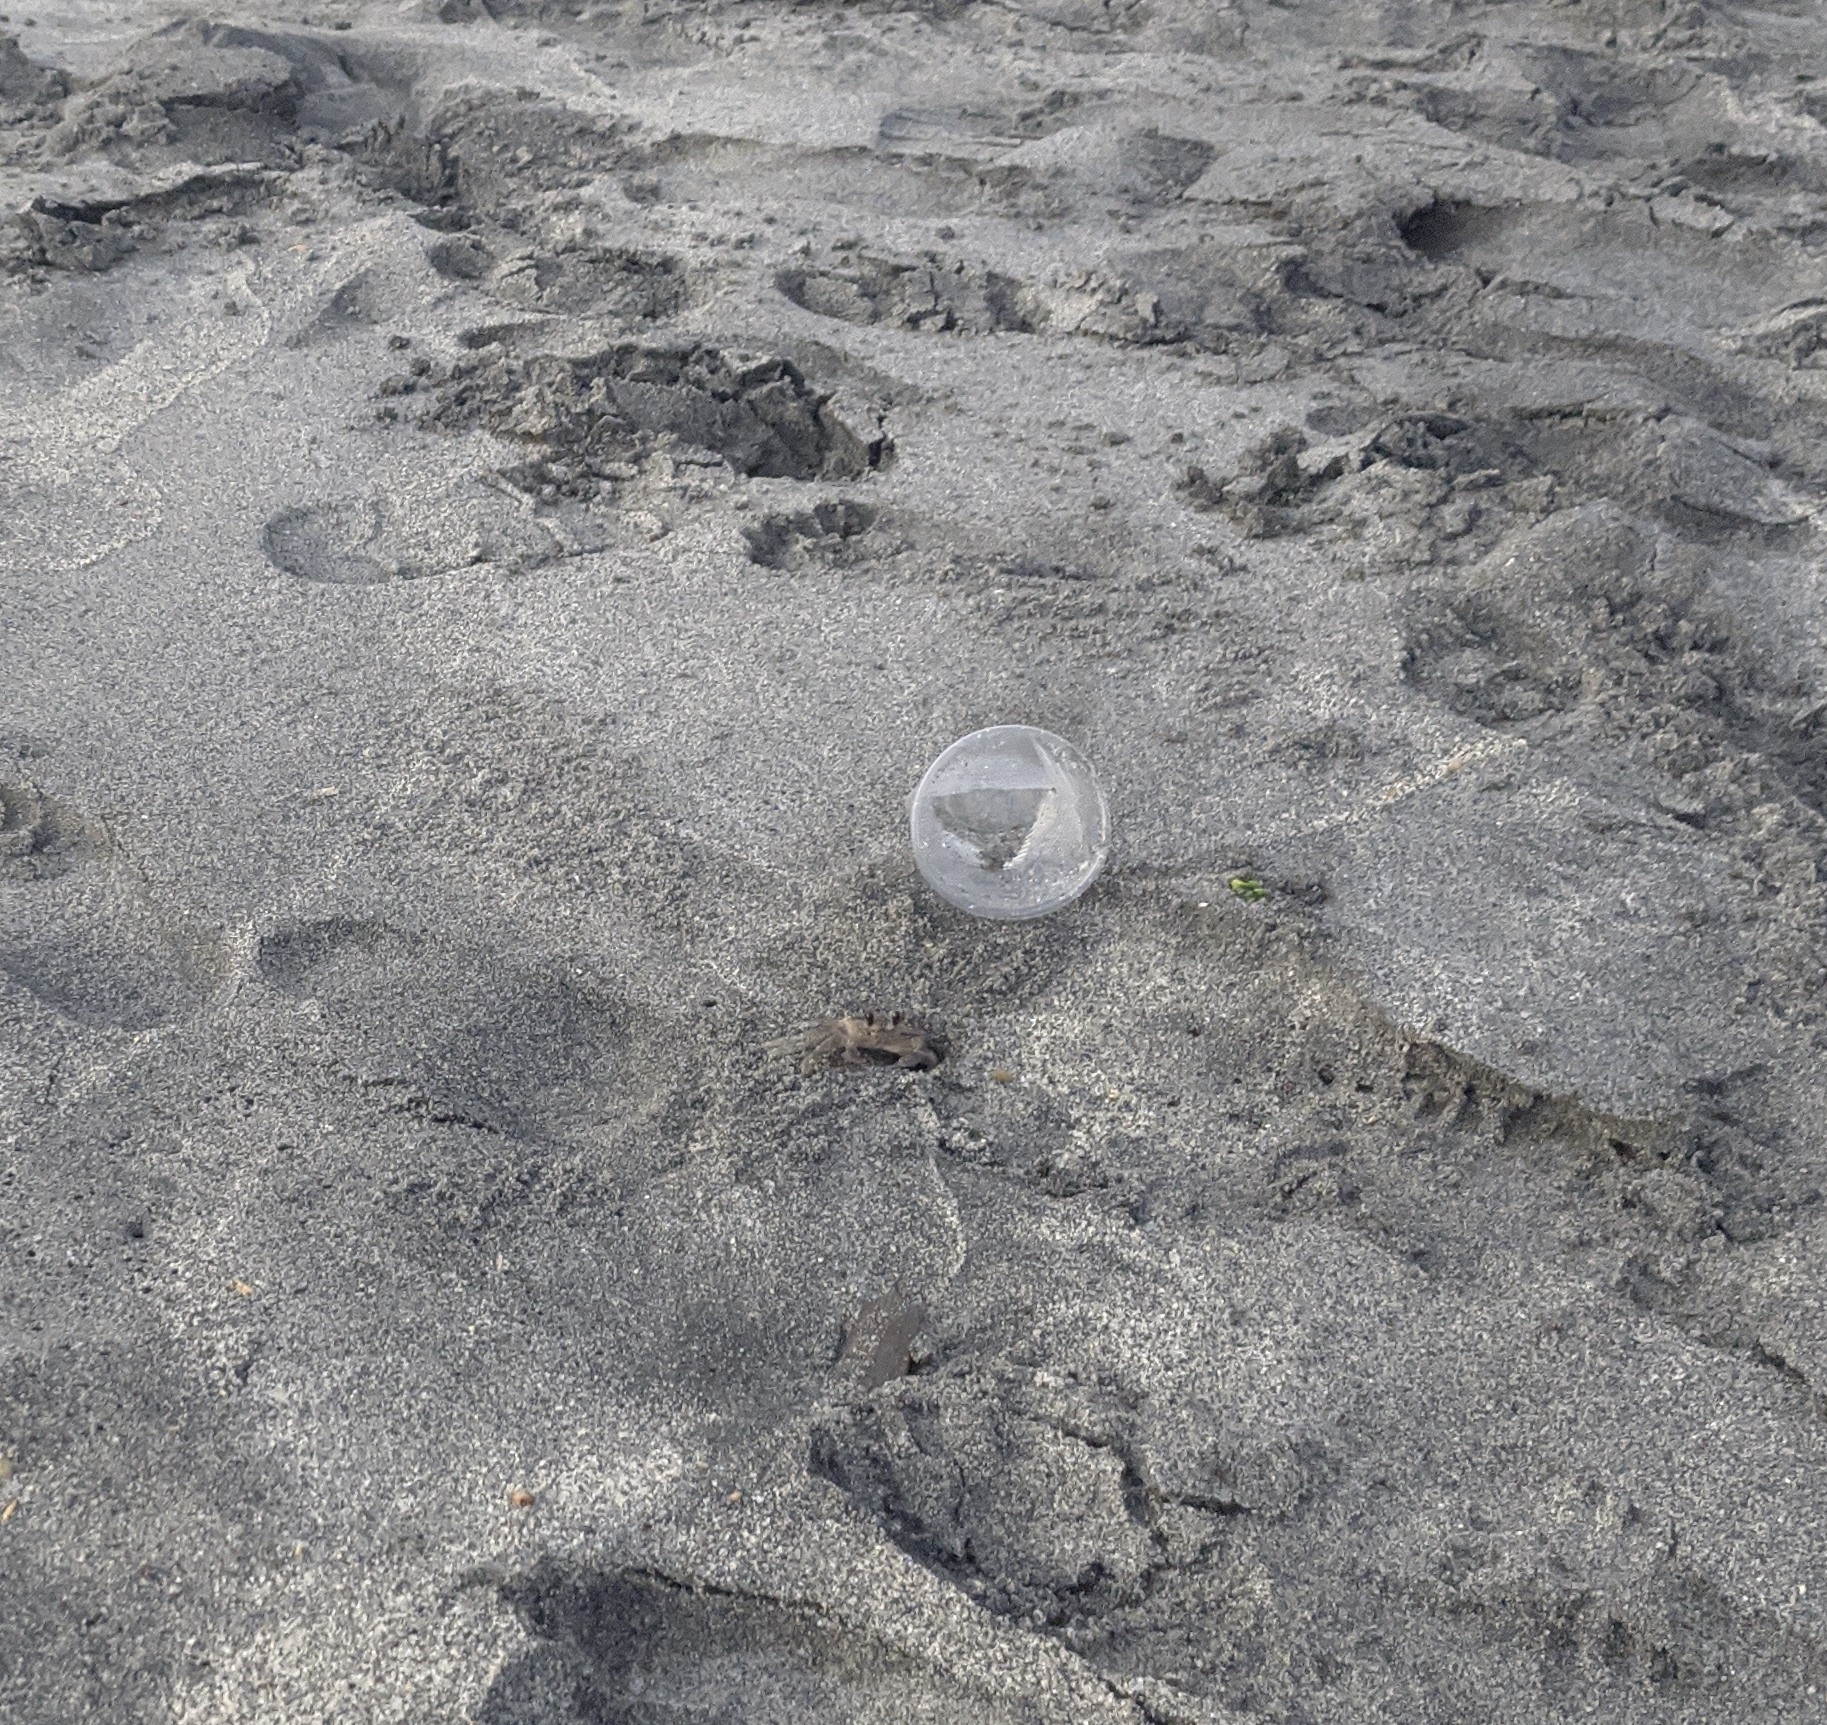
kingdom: Animalia
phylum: Arthropoda
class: Malacostraca
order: Decapoda
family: Ocypodidae
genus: Ocypode
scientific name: Ocypode quadrata
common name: Ghost crab
